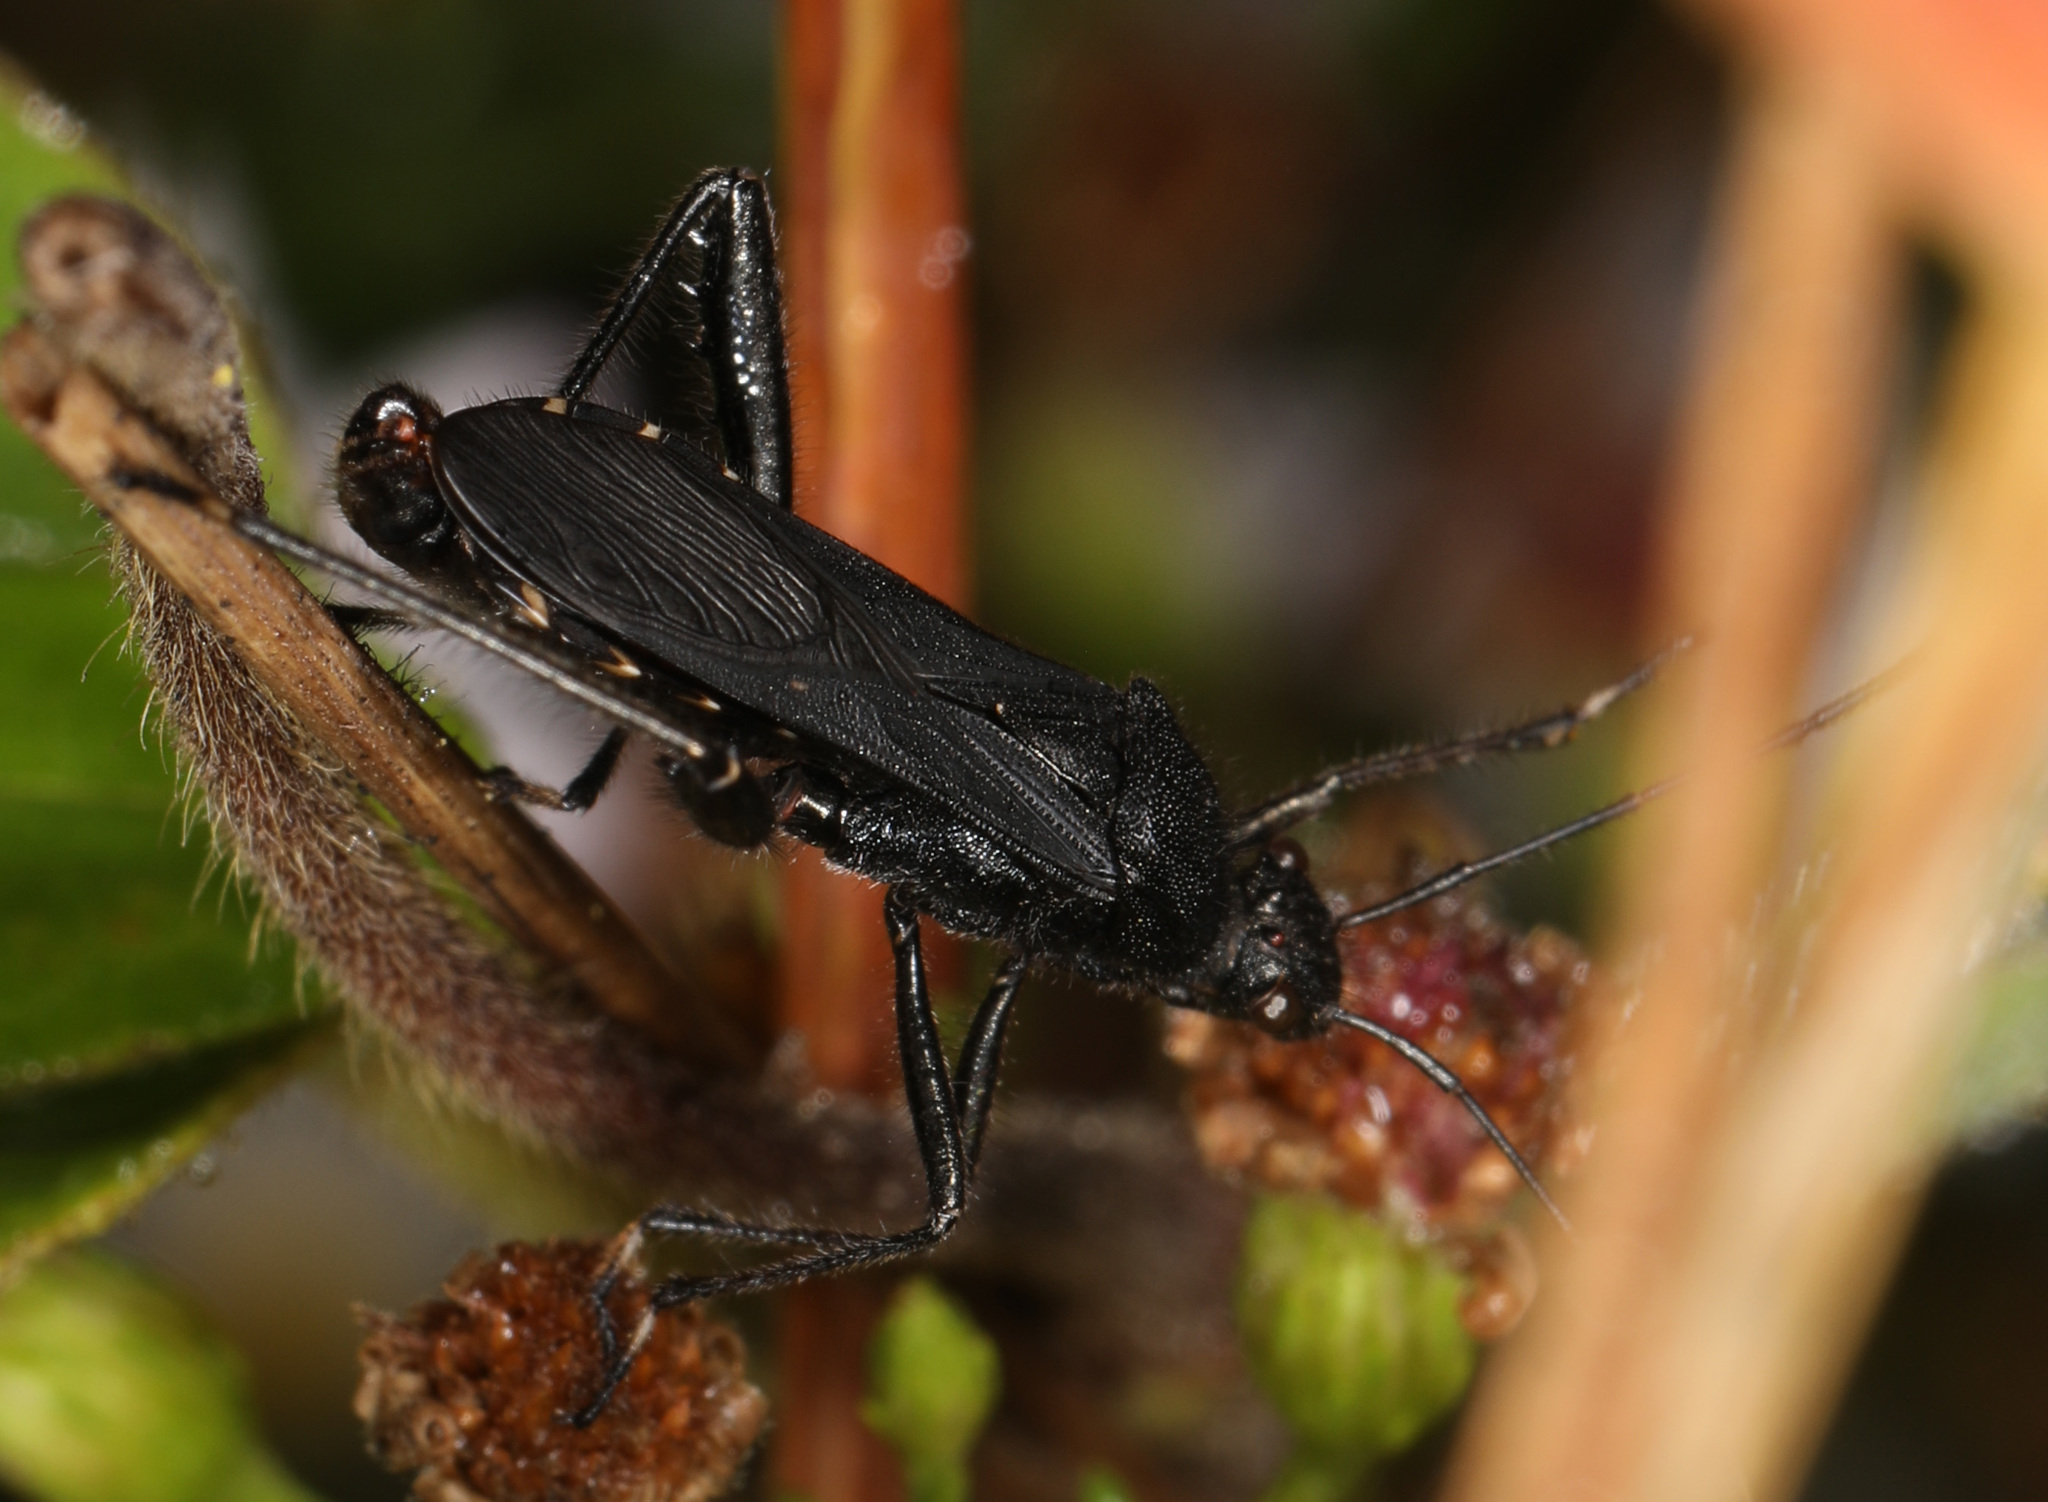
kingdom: Animalia
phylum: Arthropoda
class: Insecta
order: Hemiptera
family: Alydidae
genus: Alydus
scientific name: Alydus eurinus
